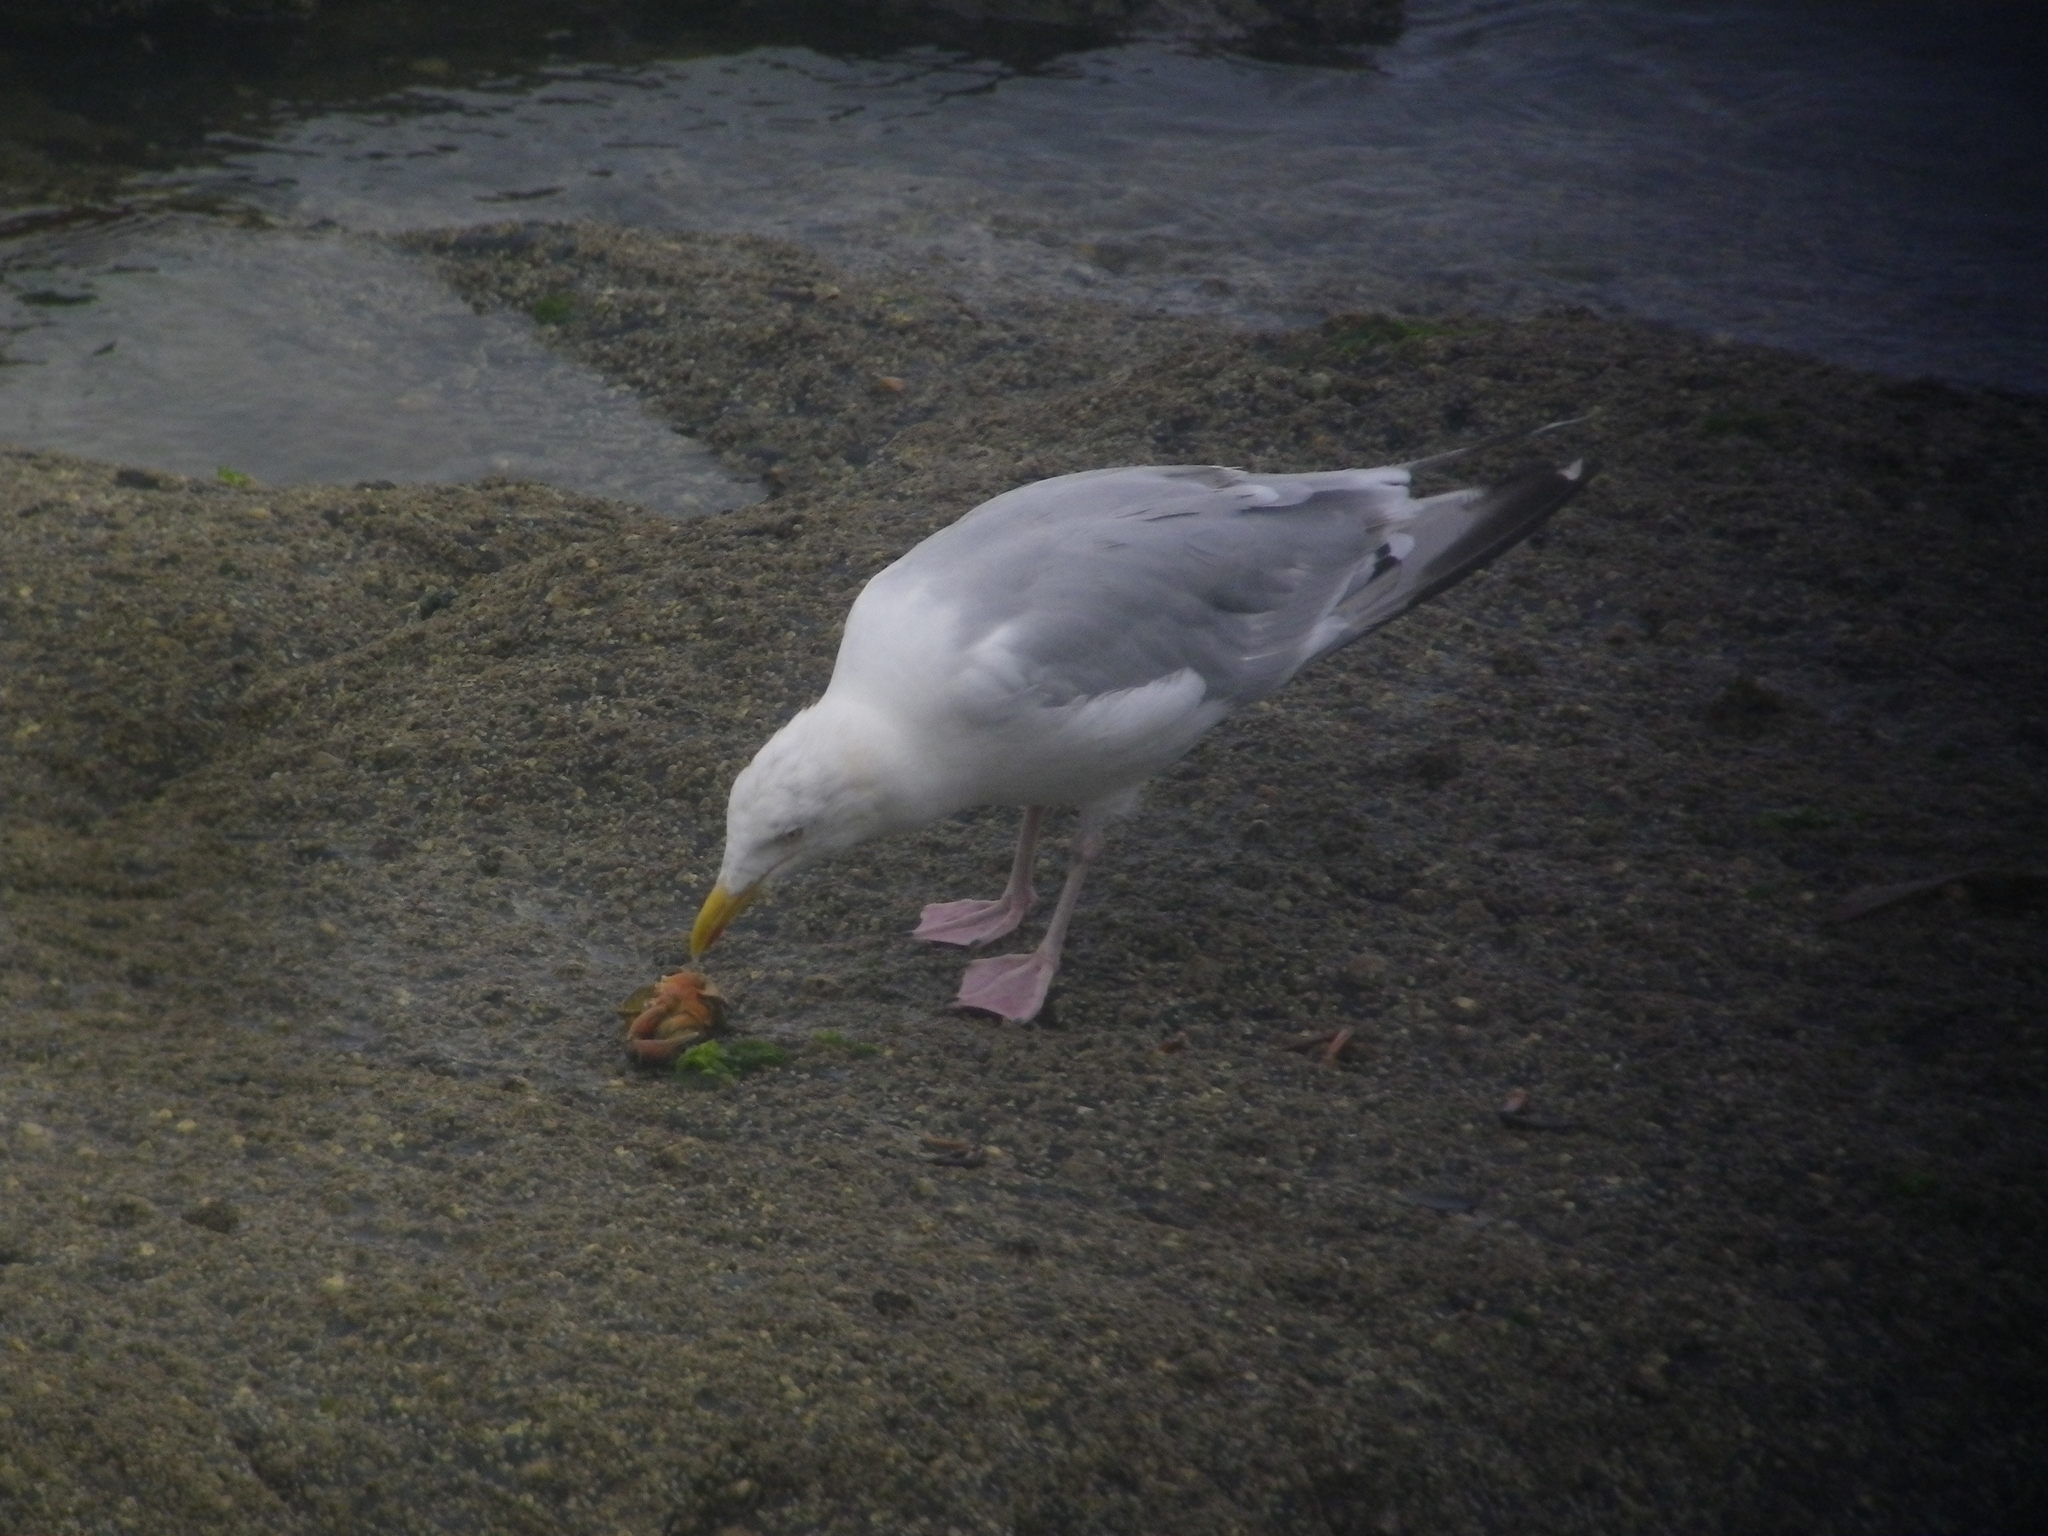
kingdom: Animalia
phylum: Chordata
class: Aves
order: Charadriiformes
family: Laridae
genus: Larus
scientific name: Larus argentatus
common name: Herring gull
